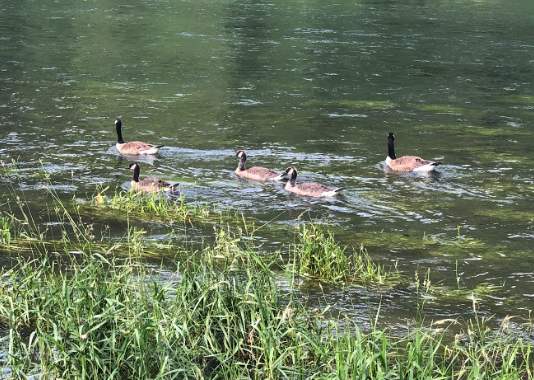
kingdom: Animalia
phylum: Chordata
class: Aves
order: Anseriformes
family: Anatidae
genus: Branta
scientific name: Branta canadensis
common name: Canada goose
